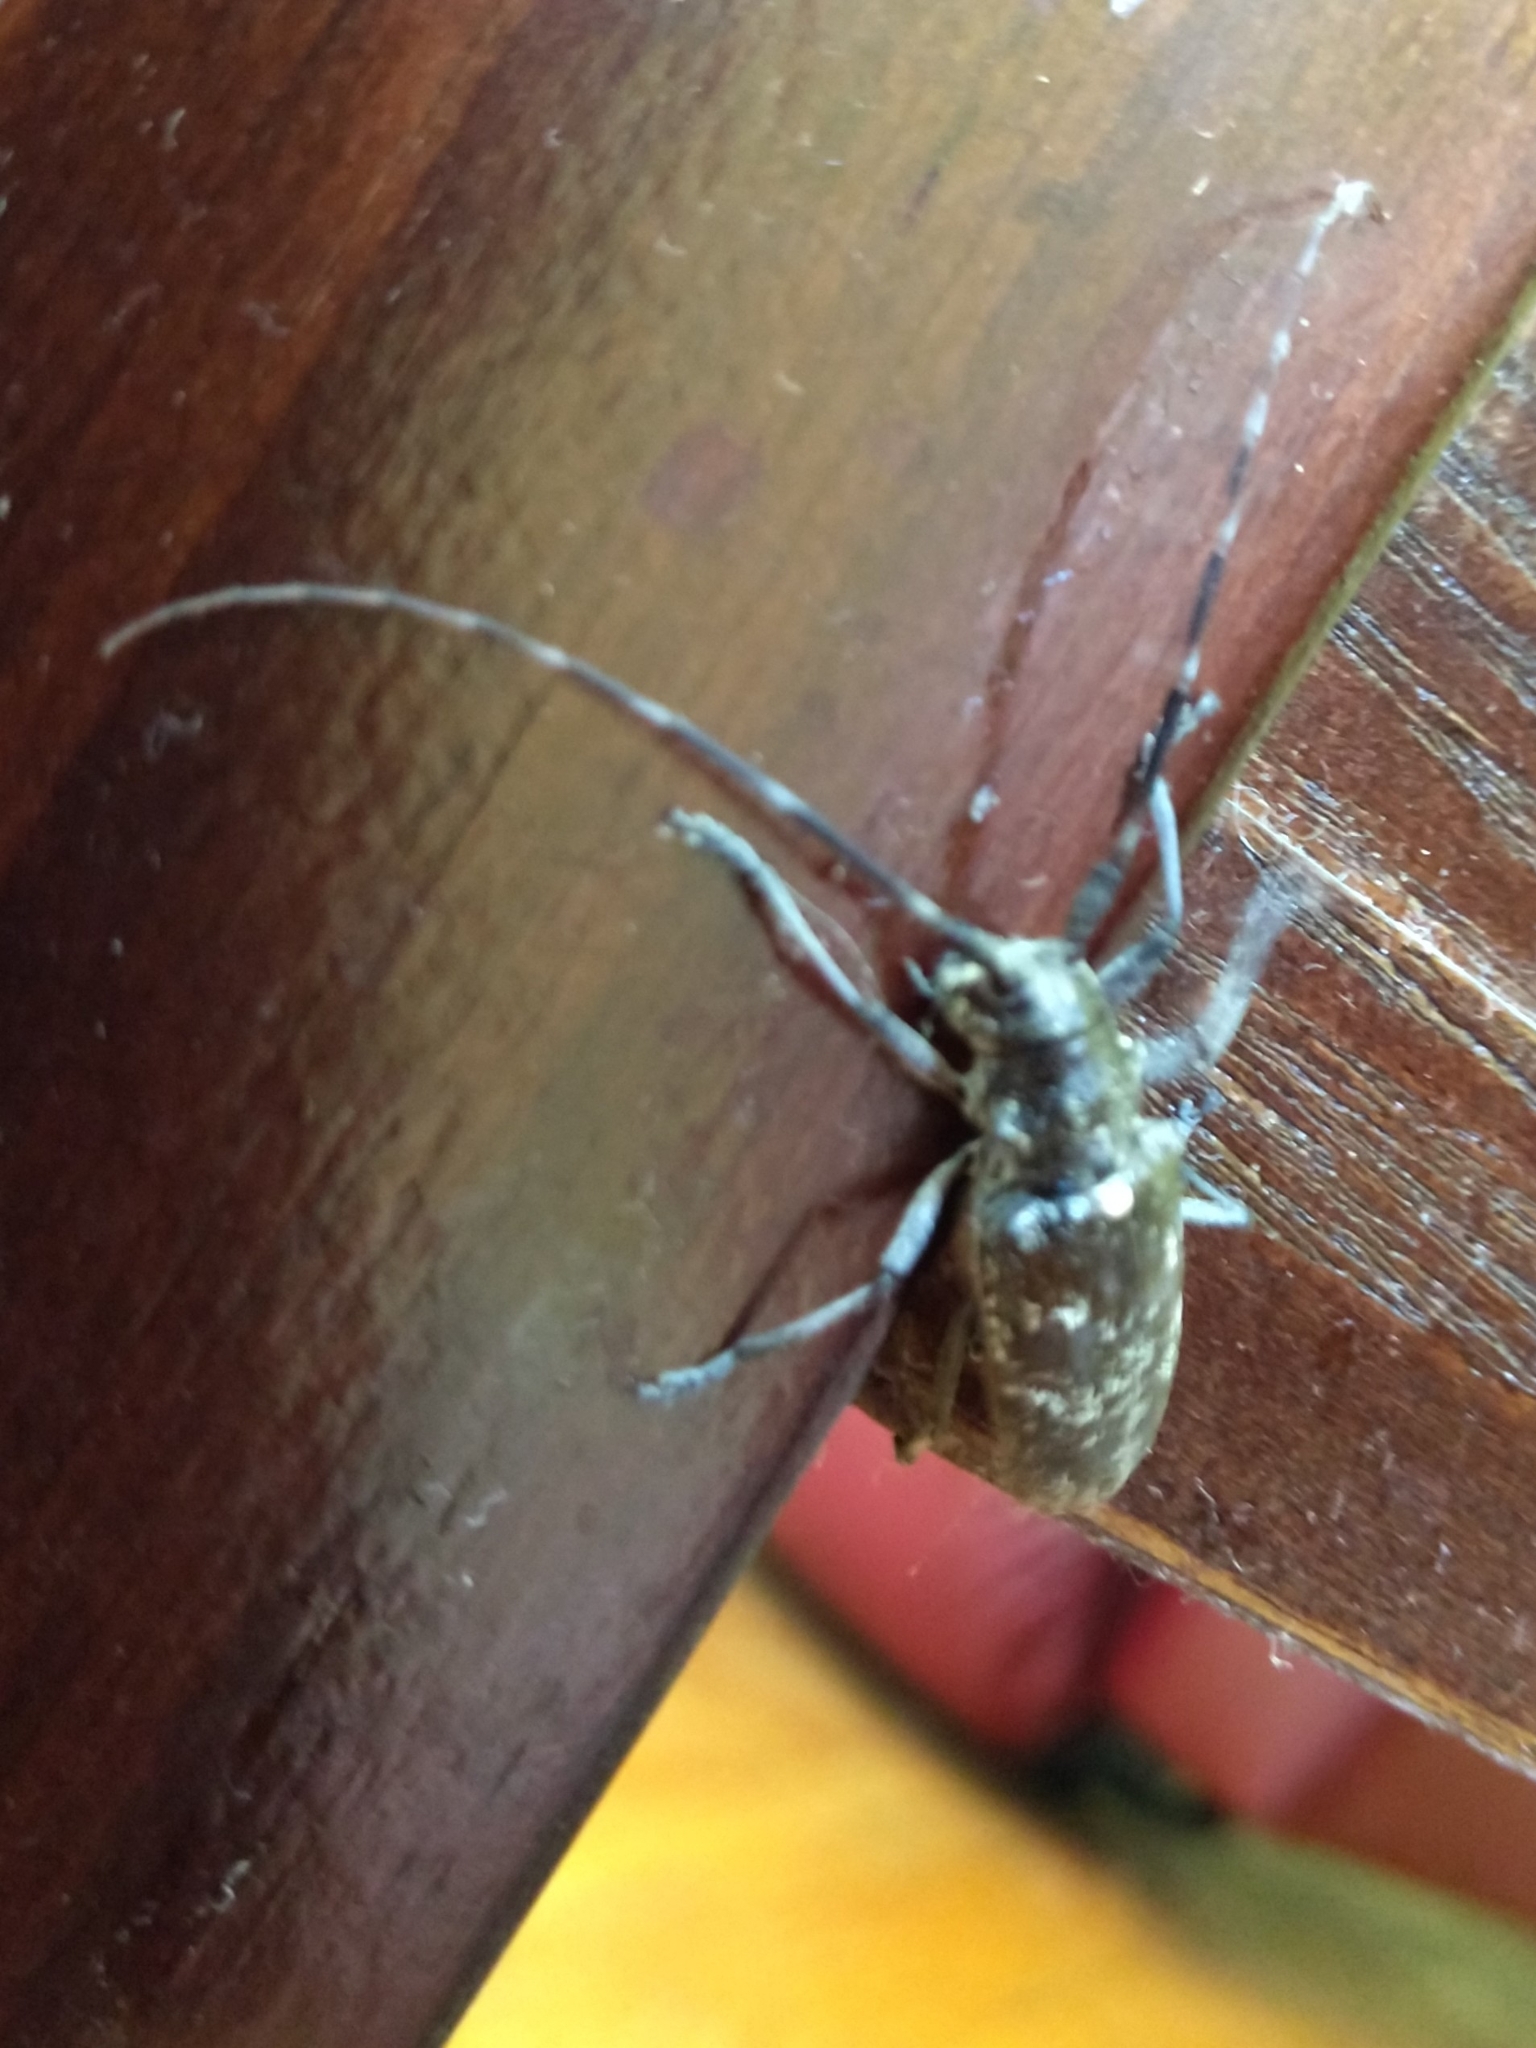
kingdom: Animalia
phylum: Arthropoda
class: Insecta
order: Coleoptera
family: Cerambycidae
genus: Monochamus
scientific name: Monochamus scutellatus
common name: White-spotted sawyer beetle
